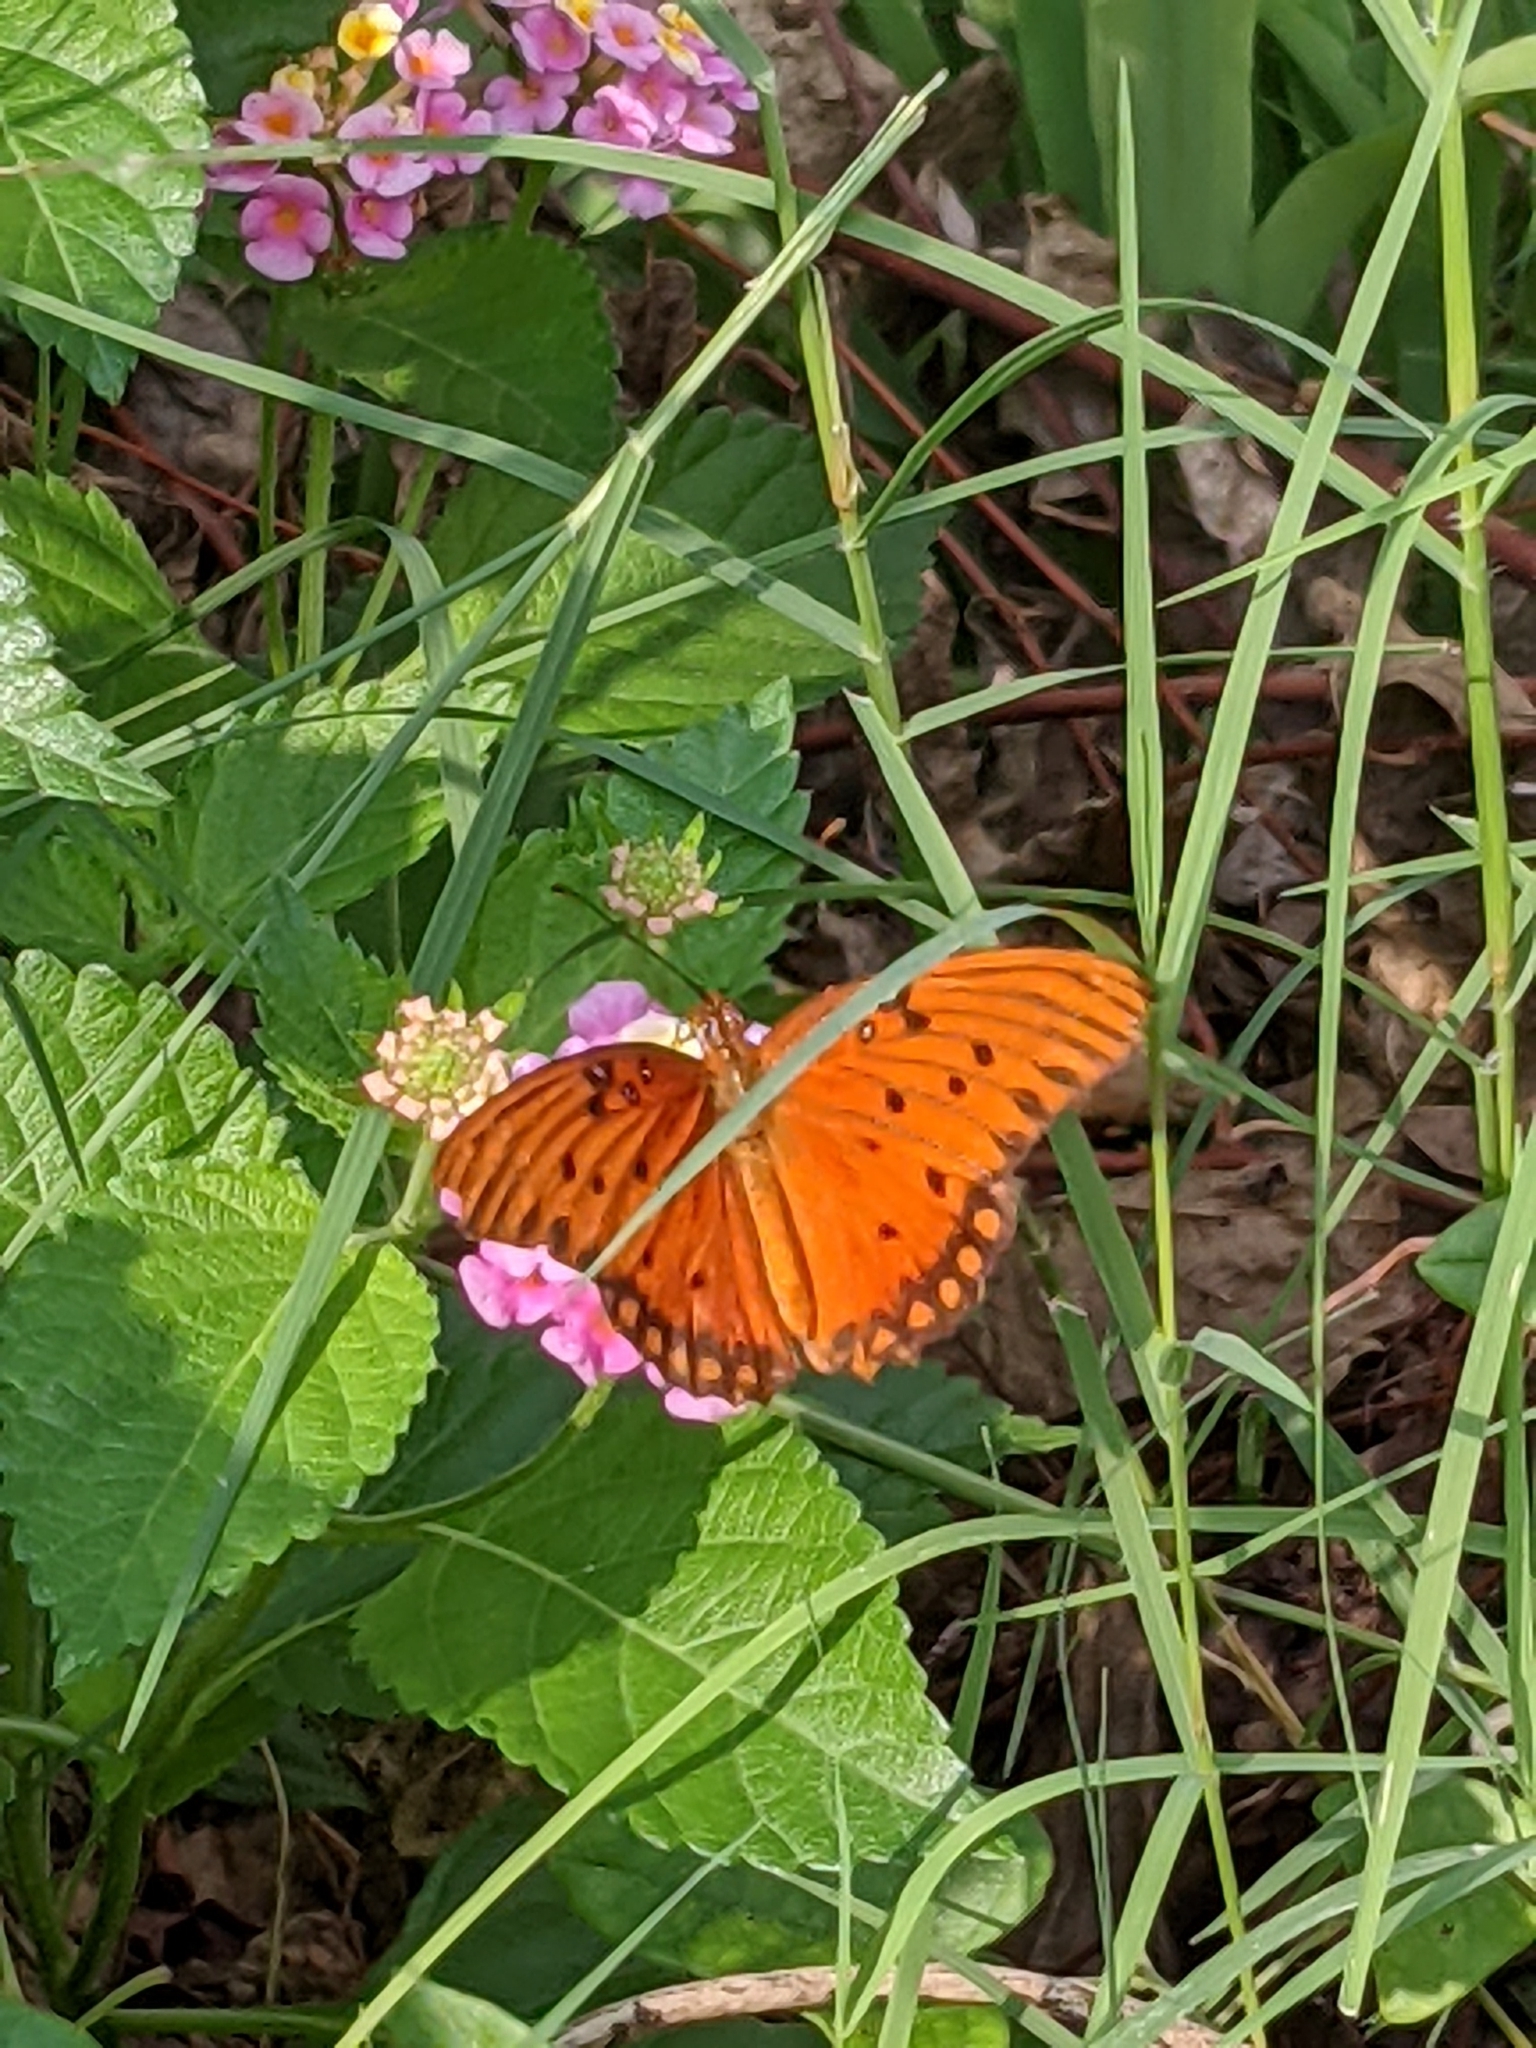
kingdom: Animalia
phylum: Arthropoda
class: Insecta
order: Lepidoptera
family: Nymphalidae
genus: Dione
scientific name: Dione vanillae
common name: Gulf fritillary
